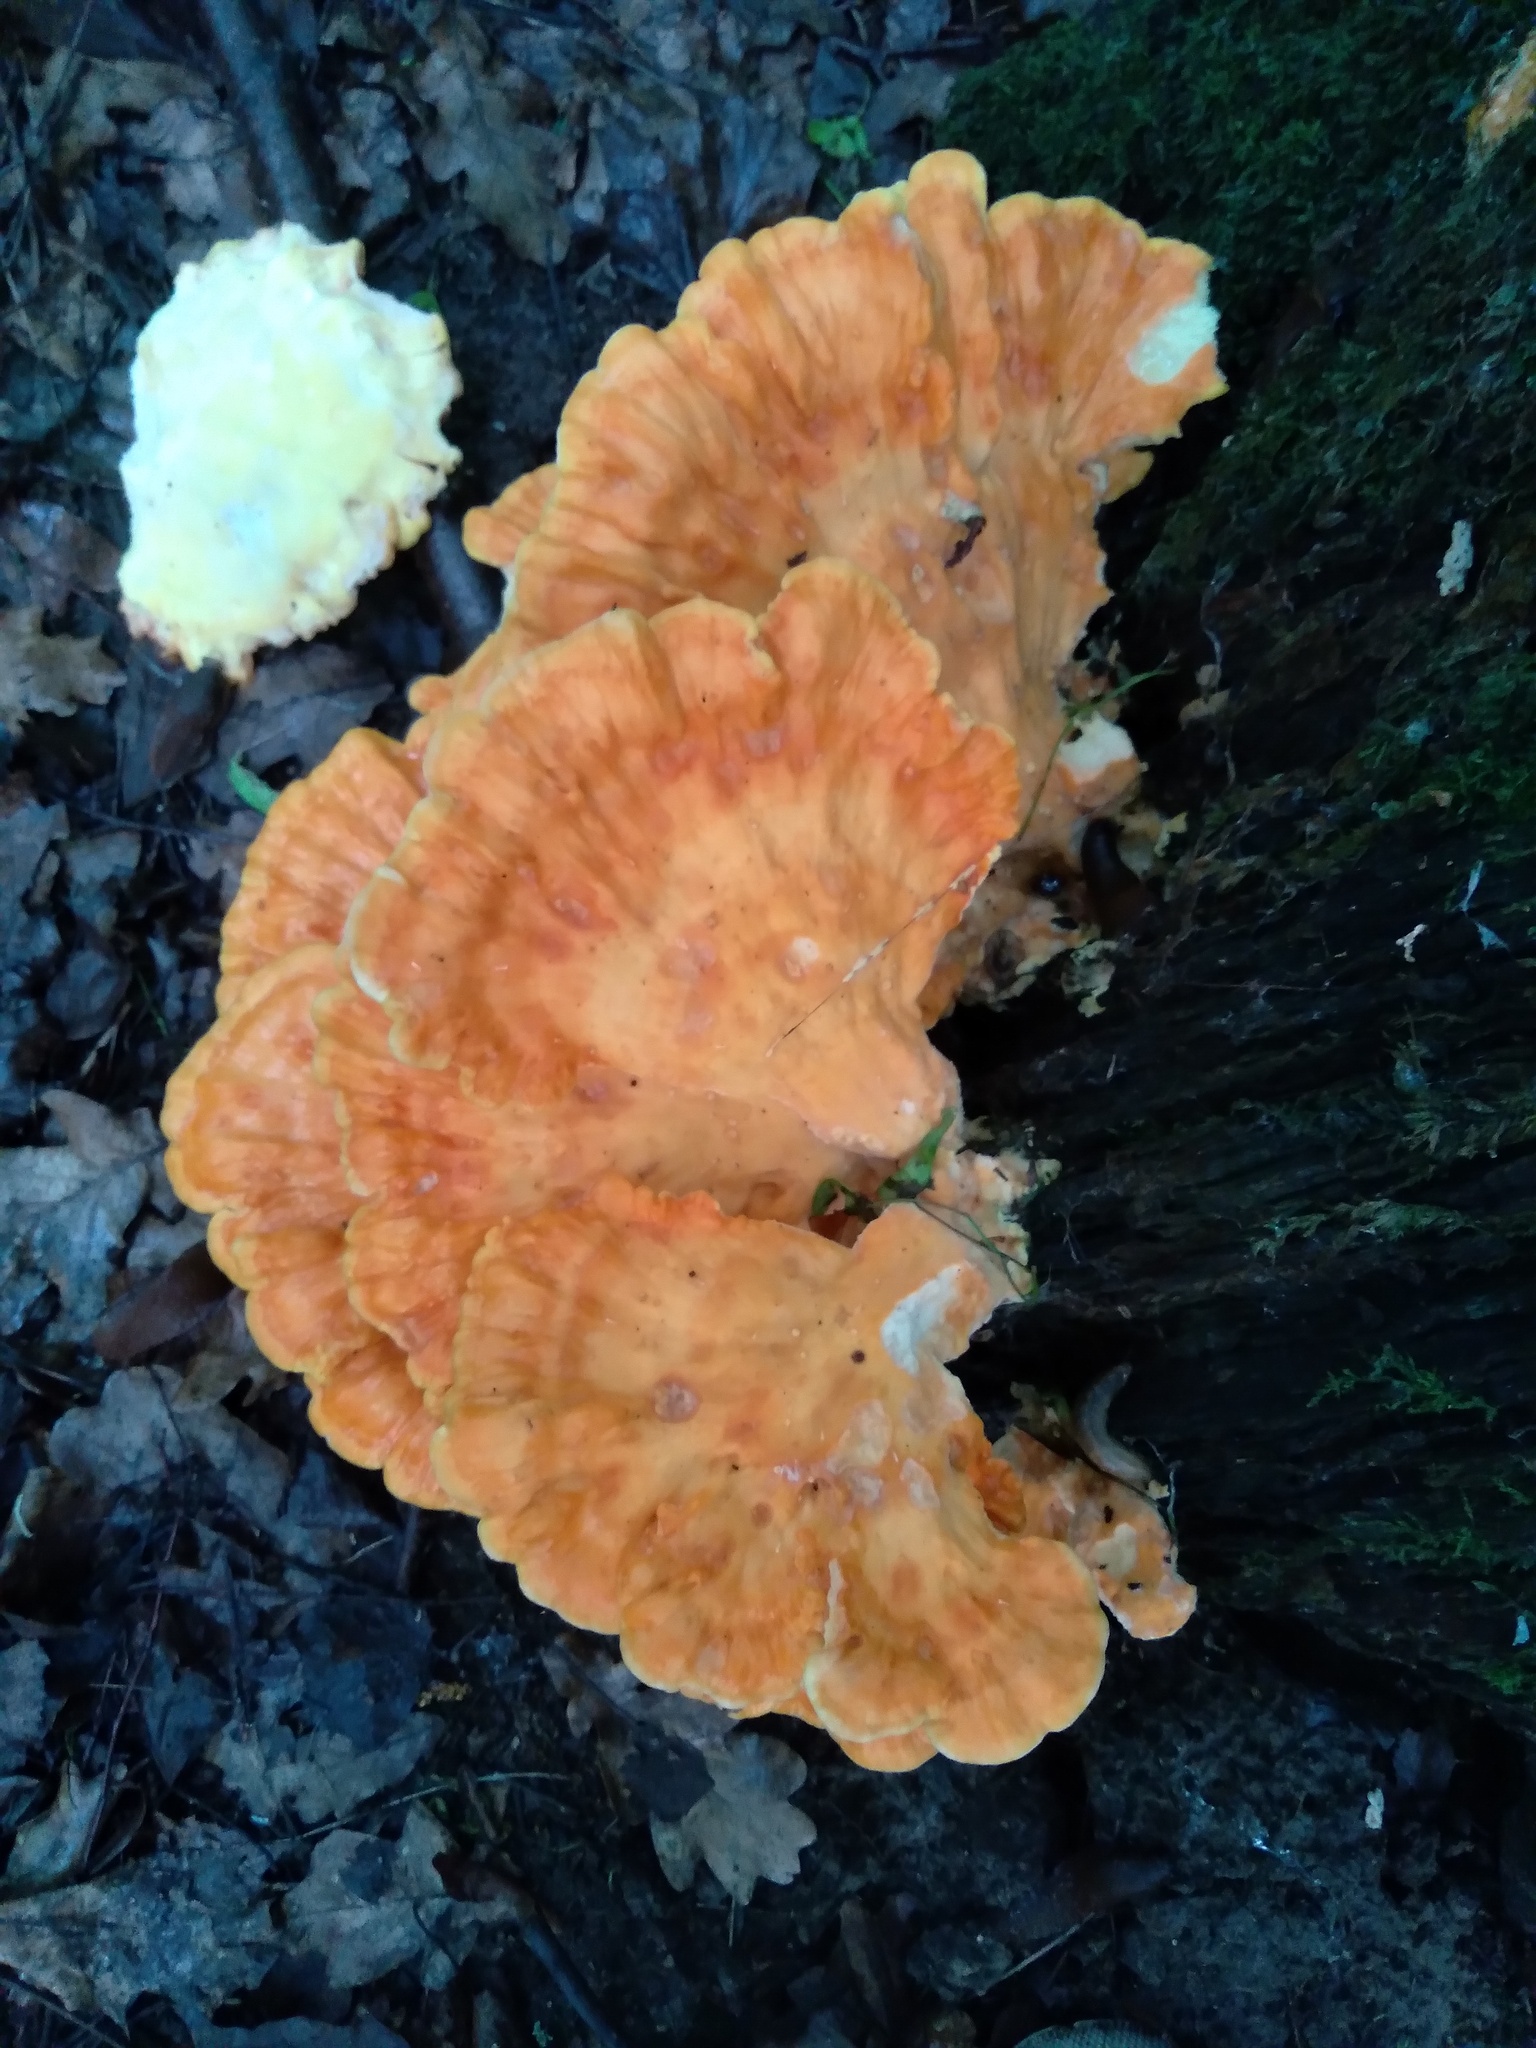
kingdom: Fungi
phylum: Basidiomycota
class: Agaricomycetes
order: Polyporales
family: Laetiporaceae
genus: Laetiporus
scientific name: Laetiporus sulphureus
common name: Chicken of the woods
